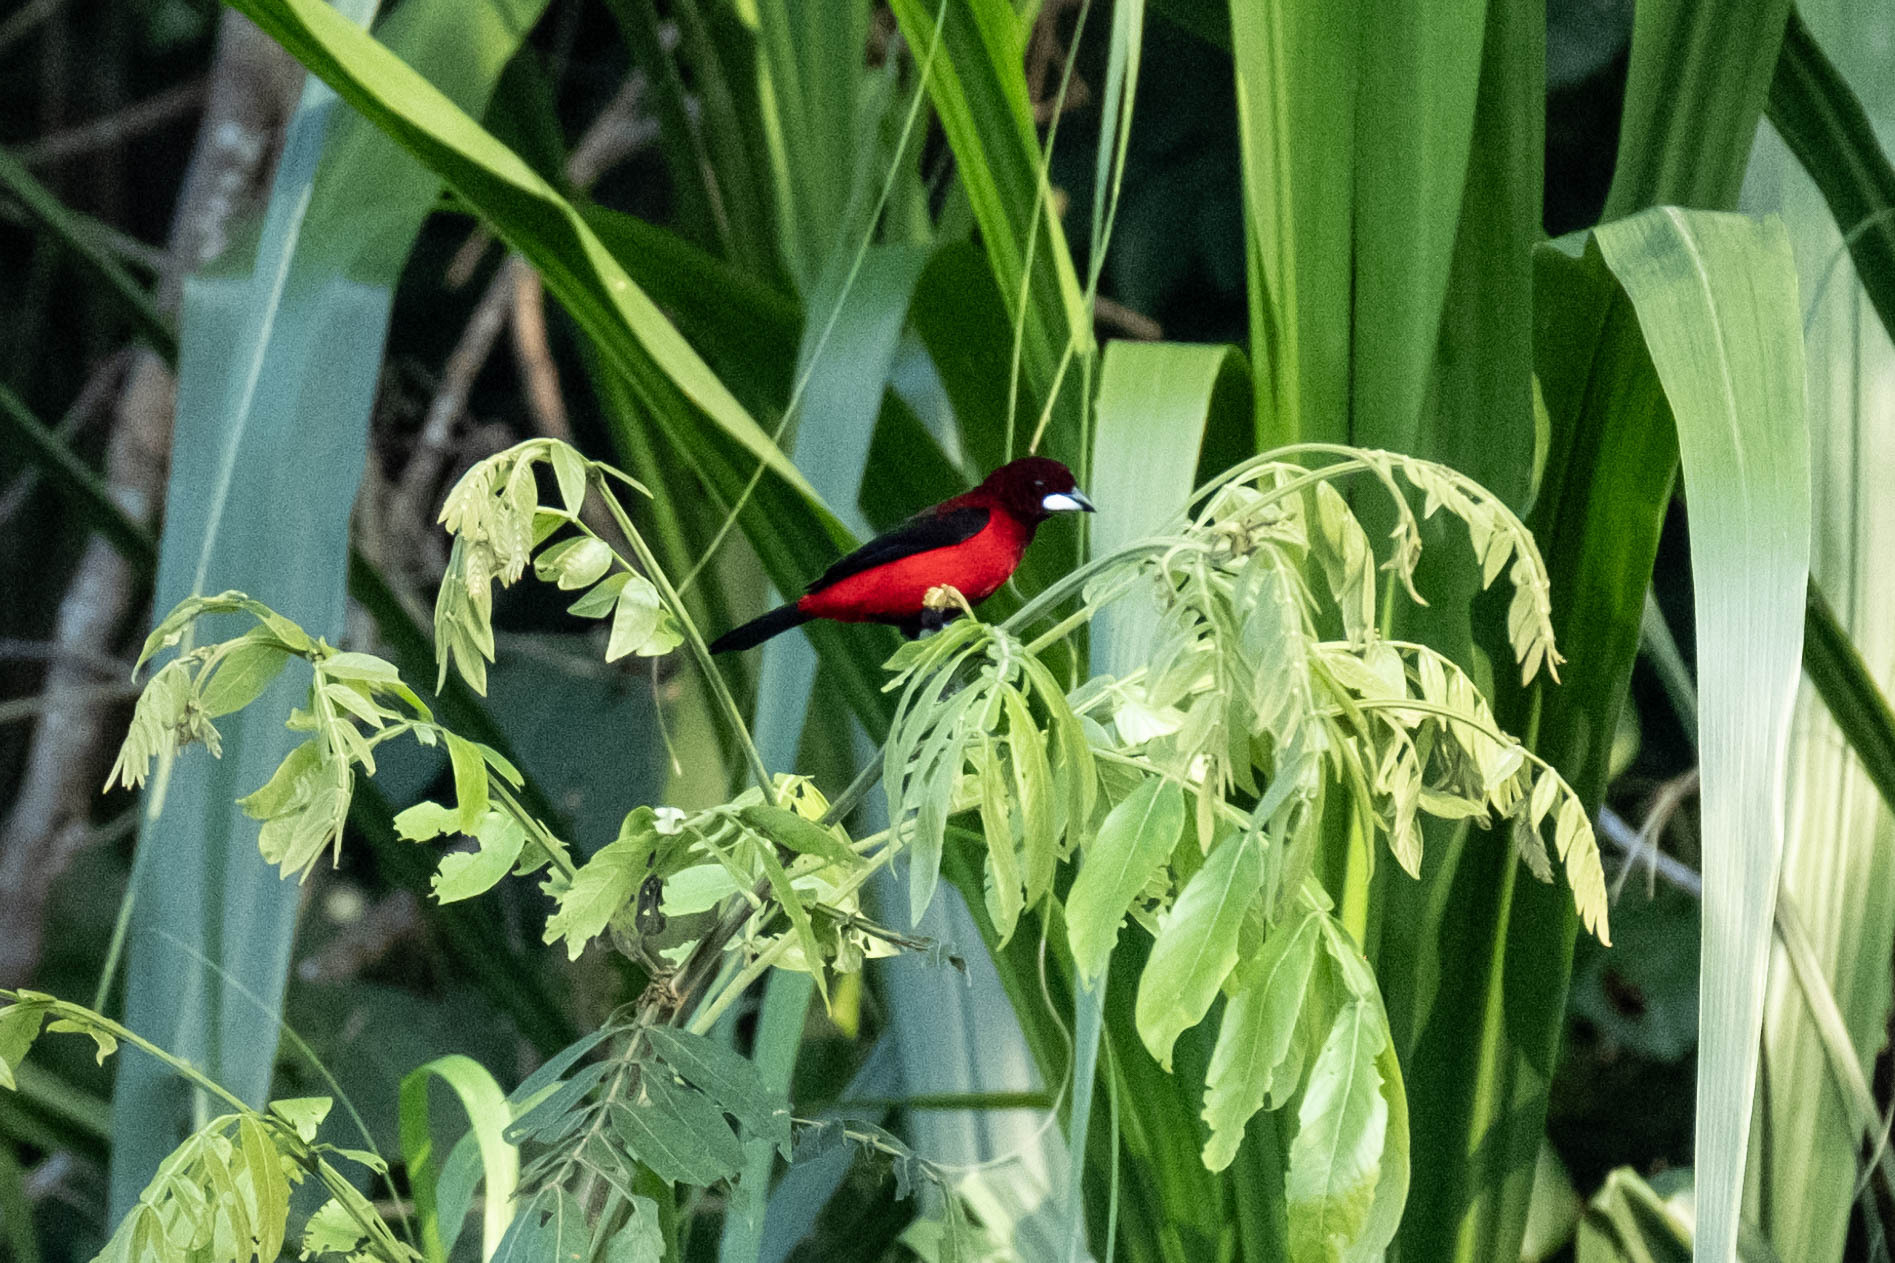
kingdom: Animalia
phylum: Chordata
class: Aves
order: Passeriformes
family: Thraupidae
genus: Ramphocelus
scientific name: Ramphocelus dimidiatus
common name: Crimson-backed tanager
